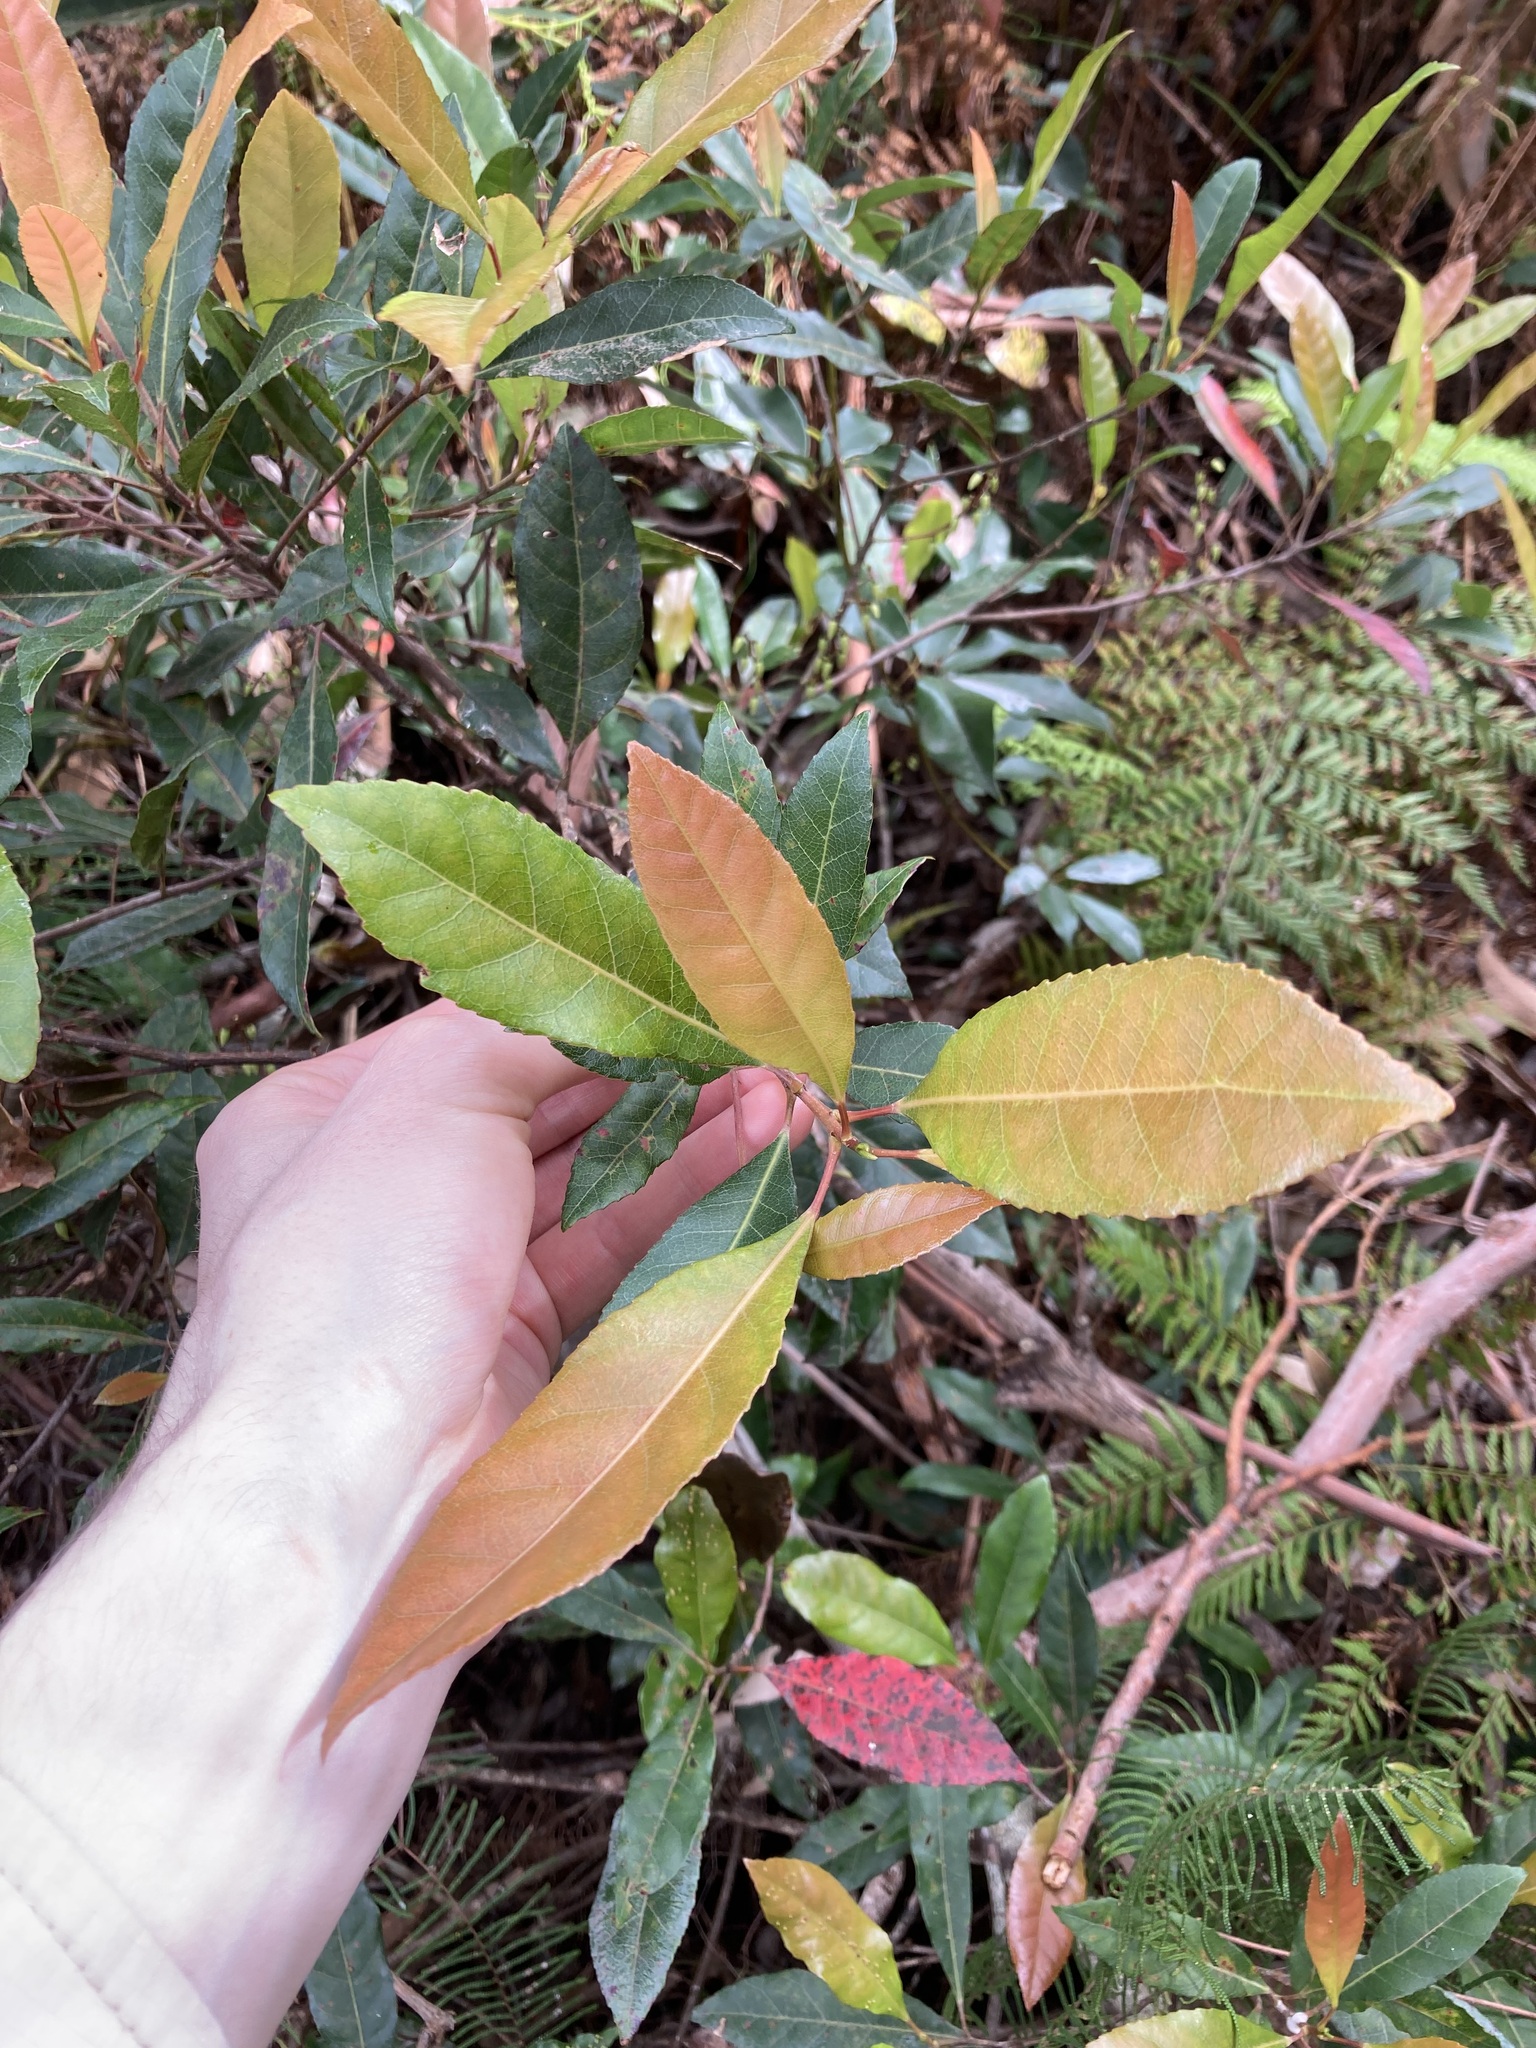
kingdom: Plantae
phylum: Tracheophyta
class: Magnoliopsida
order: Oxalidales
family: Elaeocarpaceae
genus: Elaeocarpus
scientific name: Elaeocarpus reticulatus
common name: Ash quandong
